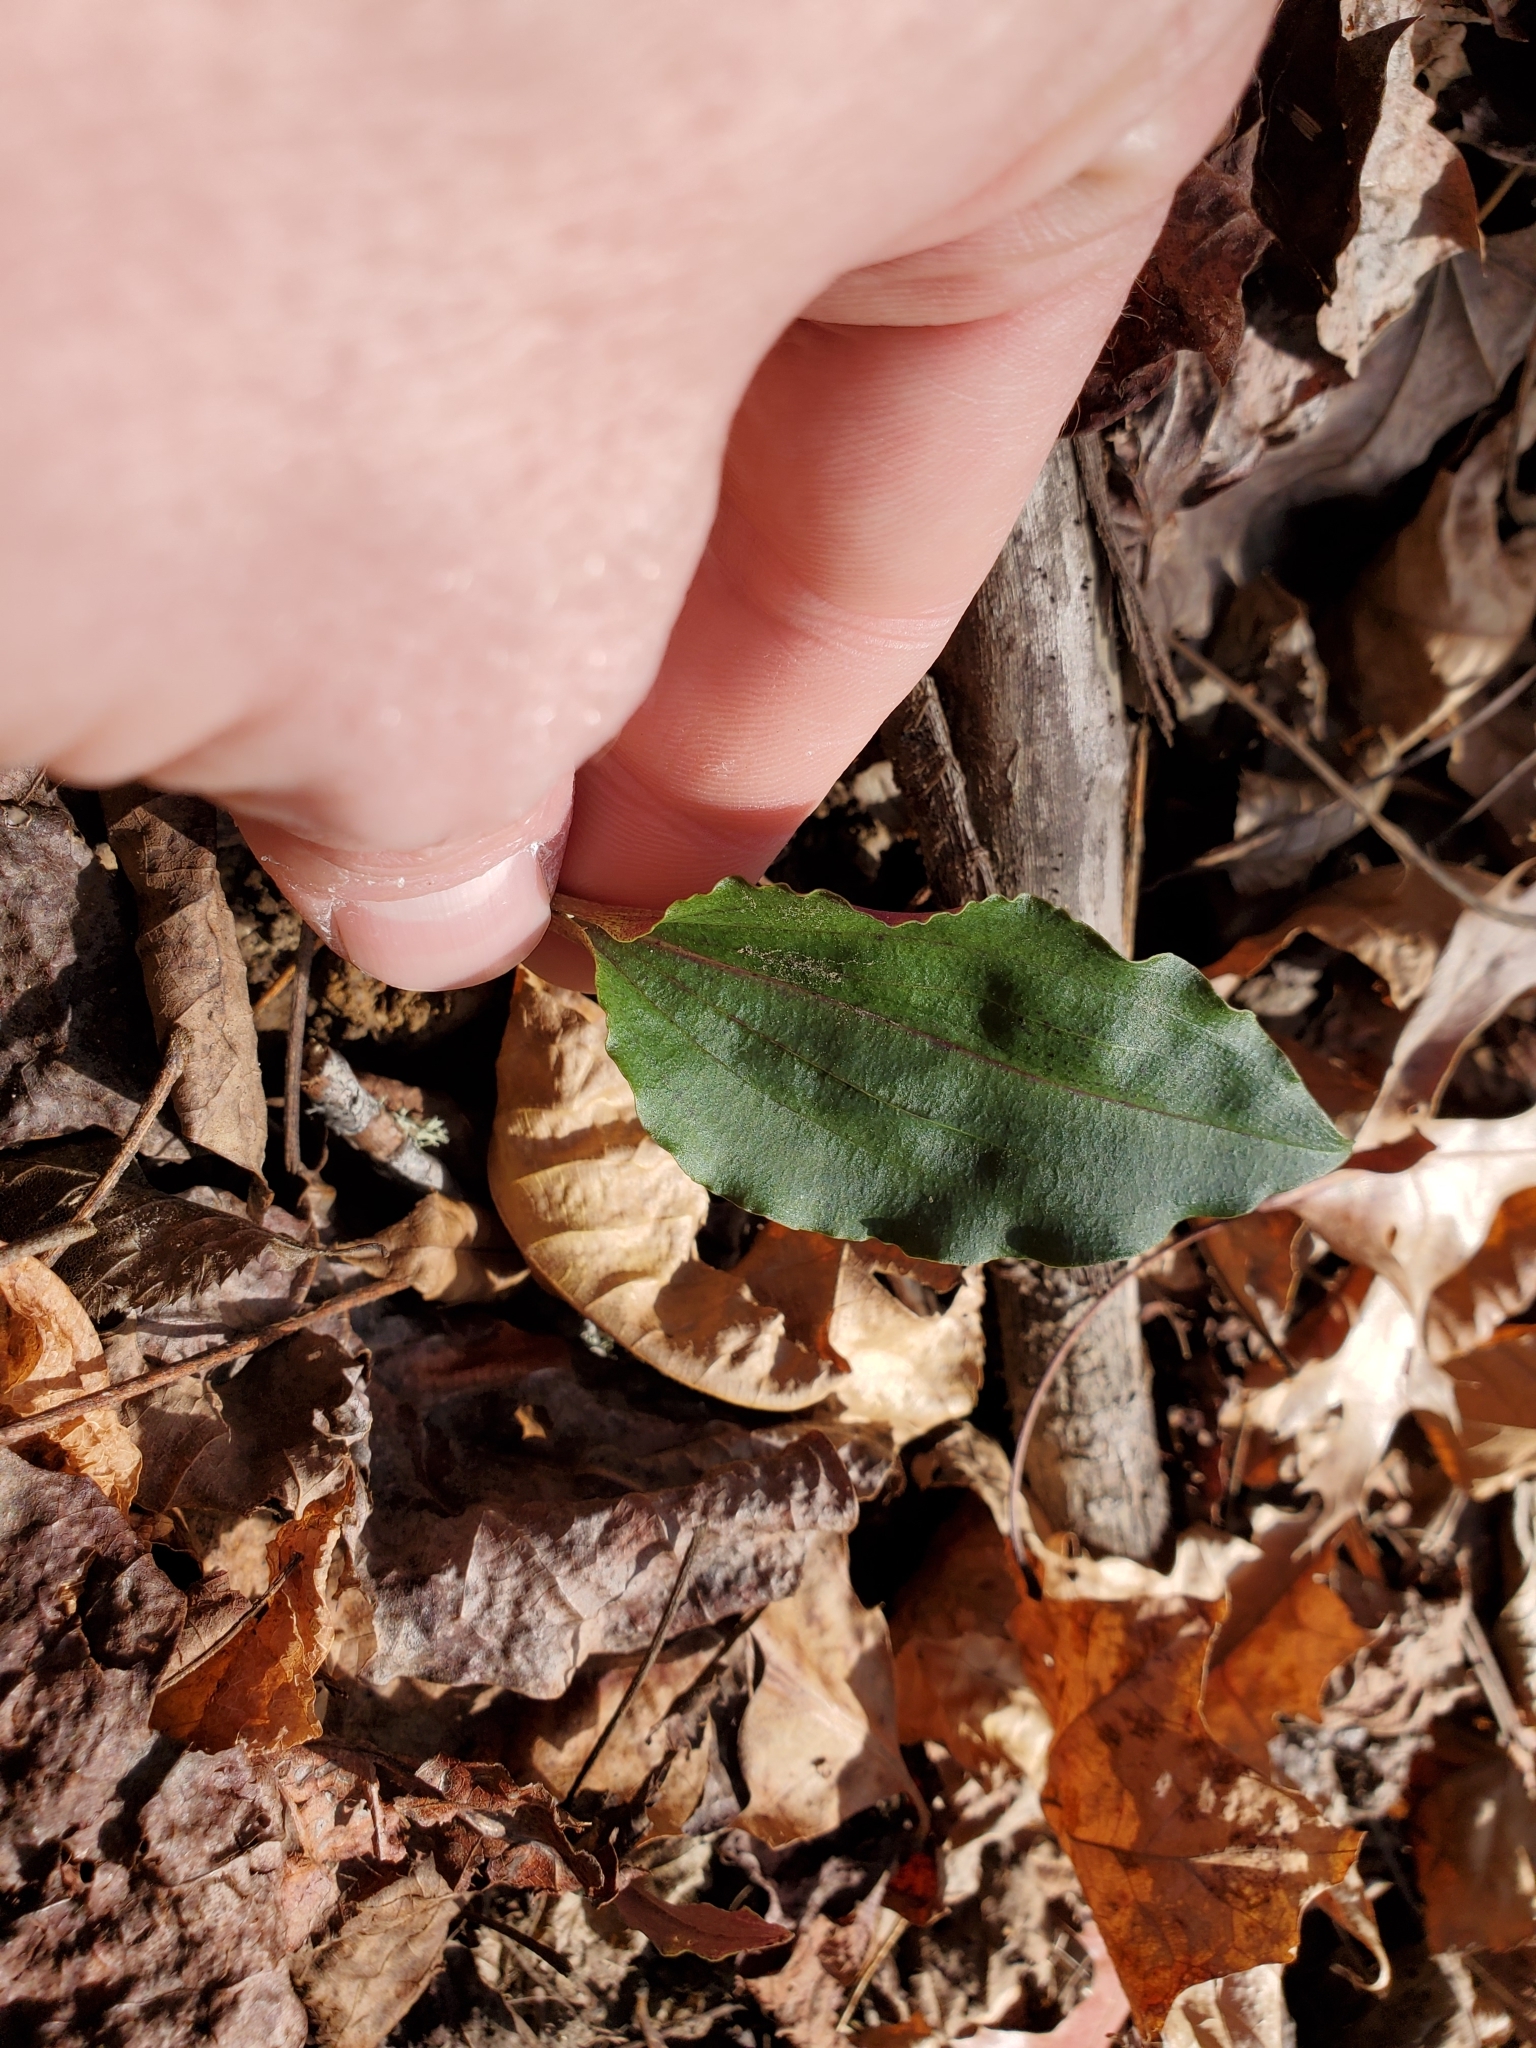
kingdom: Plantae
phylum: Tracheophyta
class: Liliopsida
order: Asparagales
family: Orchidaceae
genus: Tipularia
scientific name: Tipularia discolor
